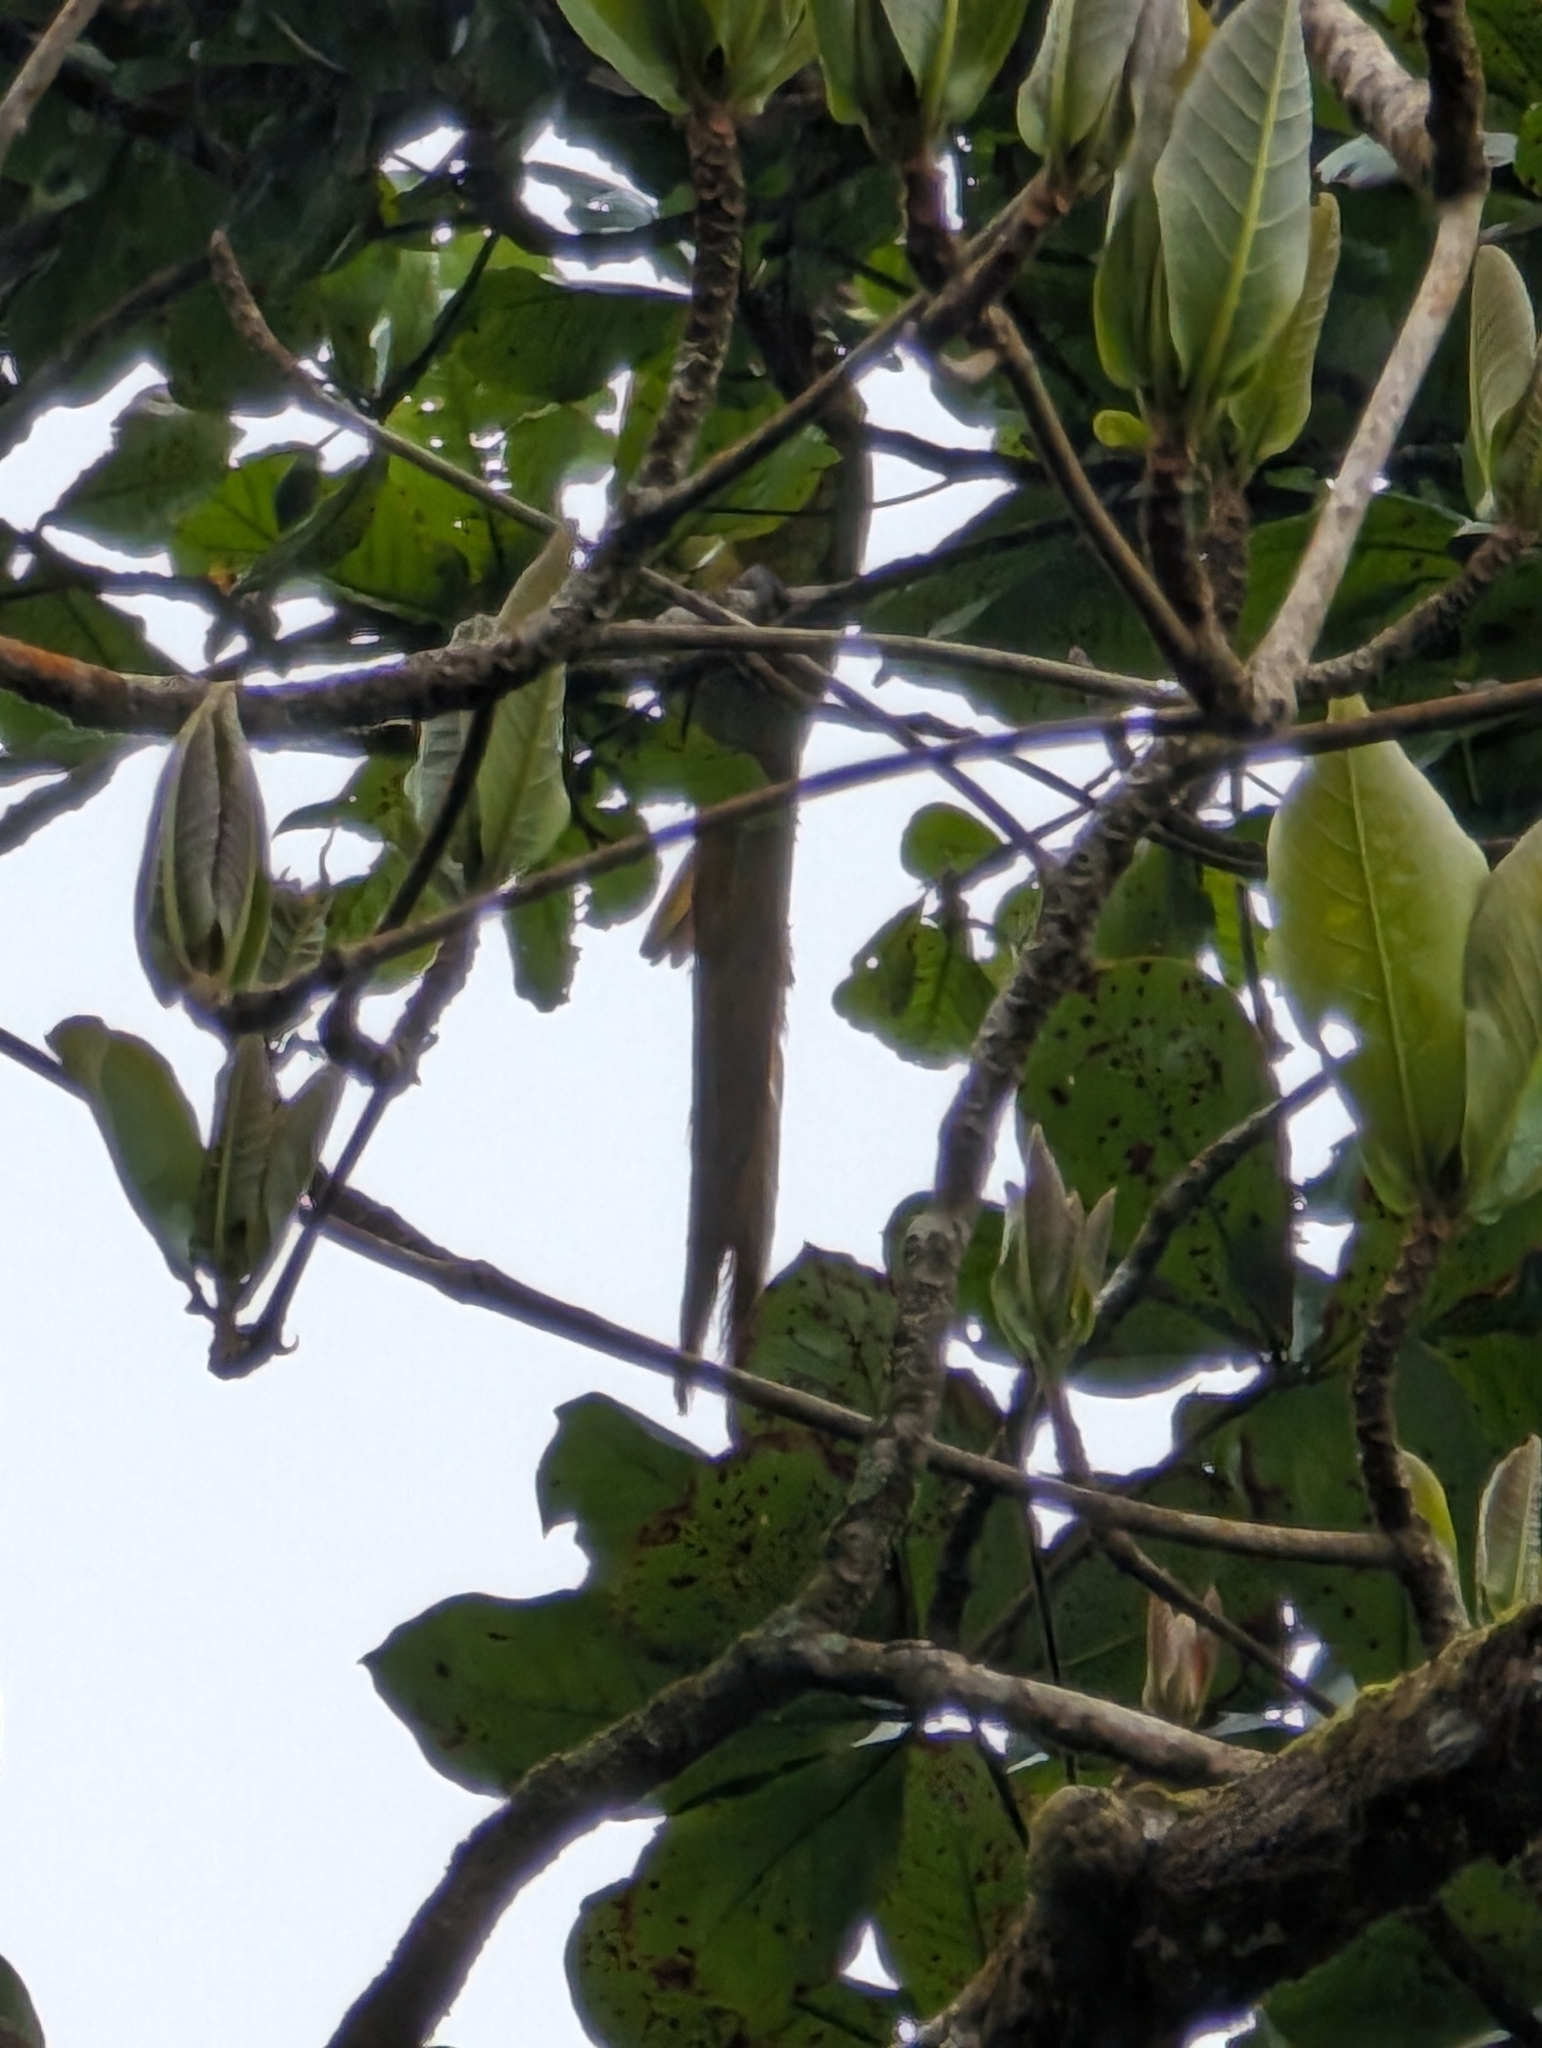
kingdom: Animalia
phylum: Chordata
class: Aves
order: Psittaciformes
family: Psittacidae
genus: Ara
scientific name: Ara ambiguus
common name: Great green macaw
